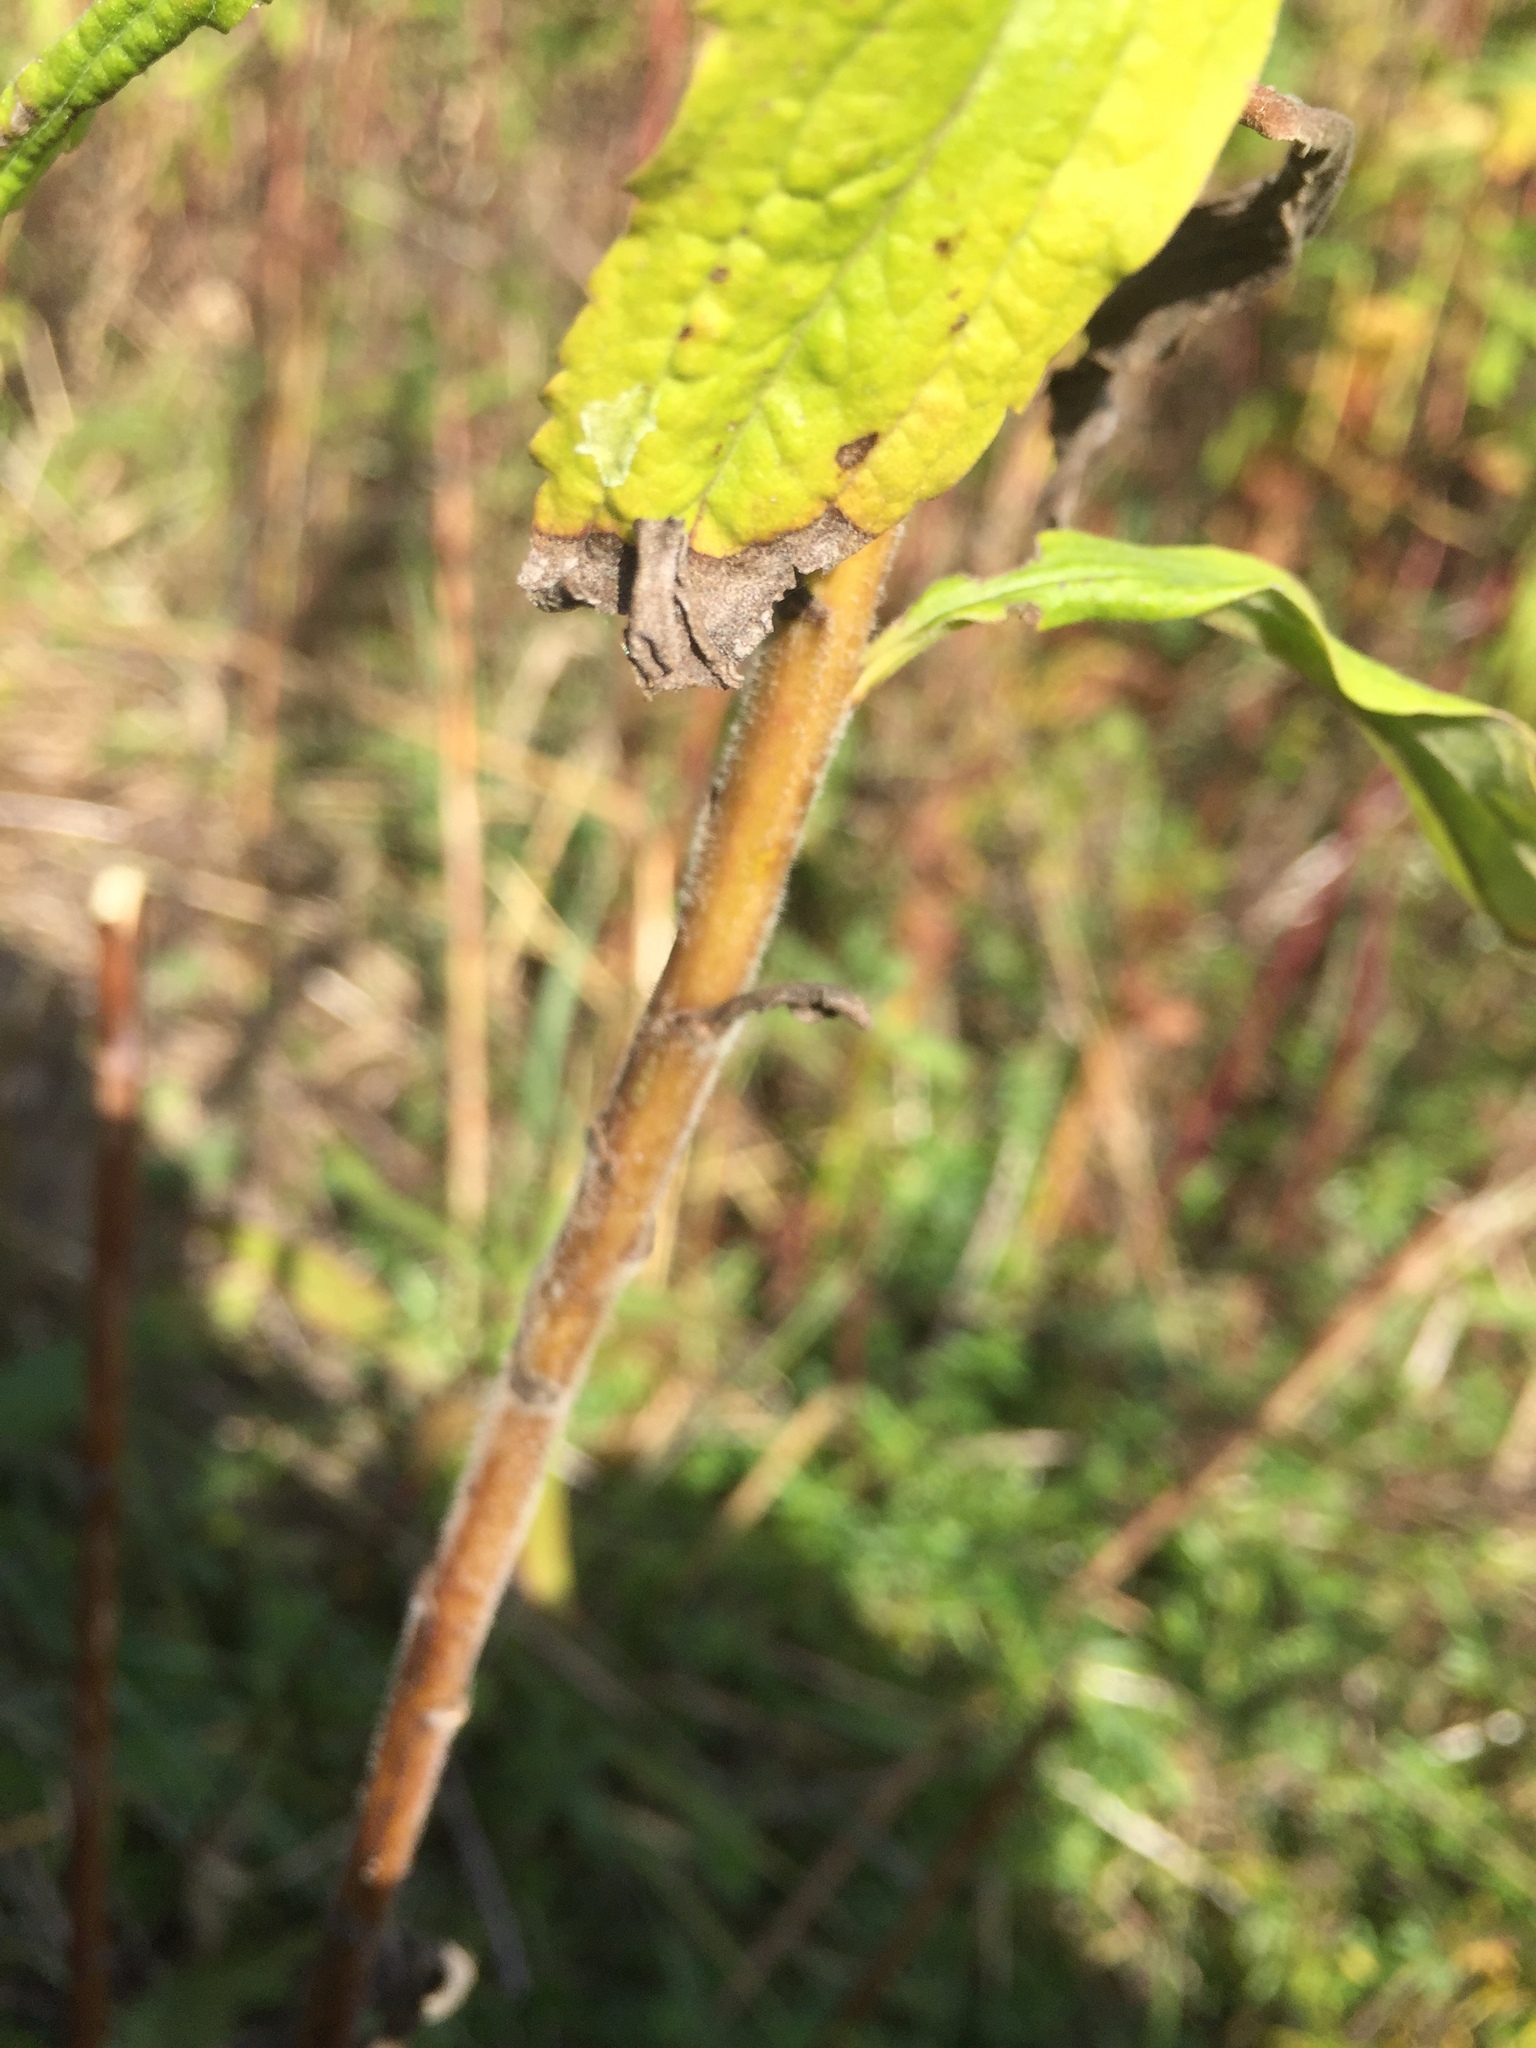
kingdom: Plantae
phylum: Tracheophyta
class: Magnoliopsida
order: Asterales
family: Asteraceae
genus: Solidago
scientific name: Solidago canadensis
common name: Canada goldenrod
